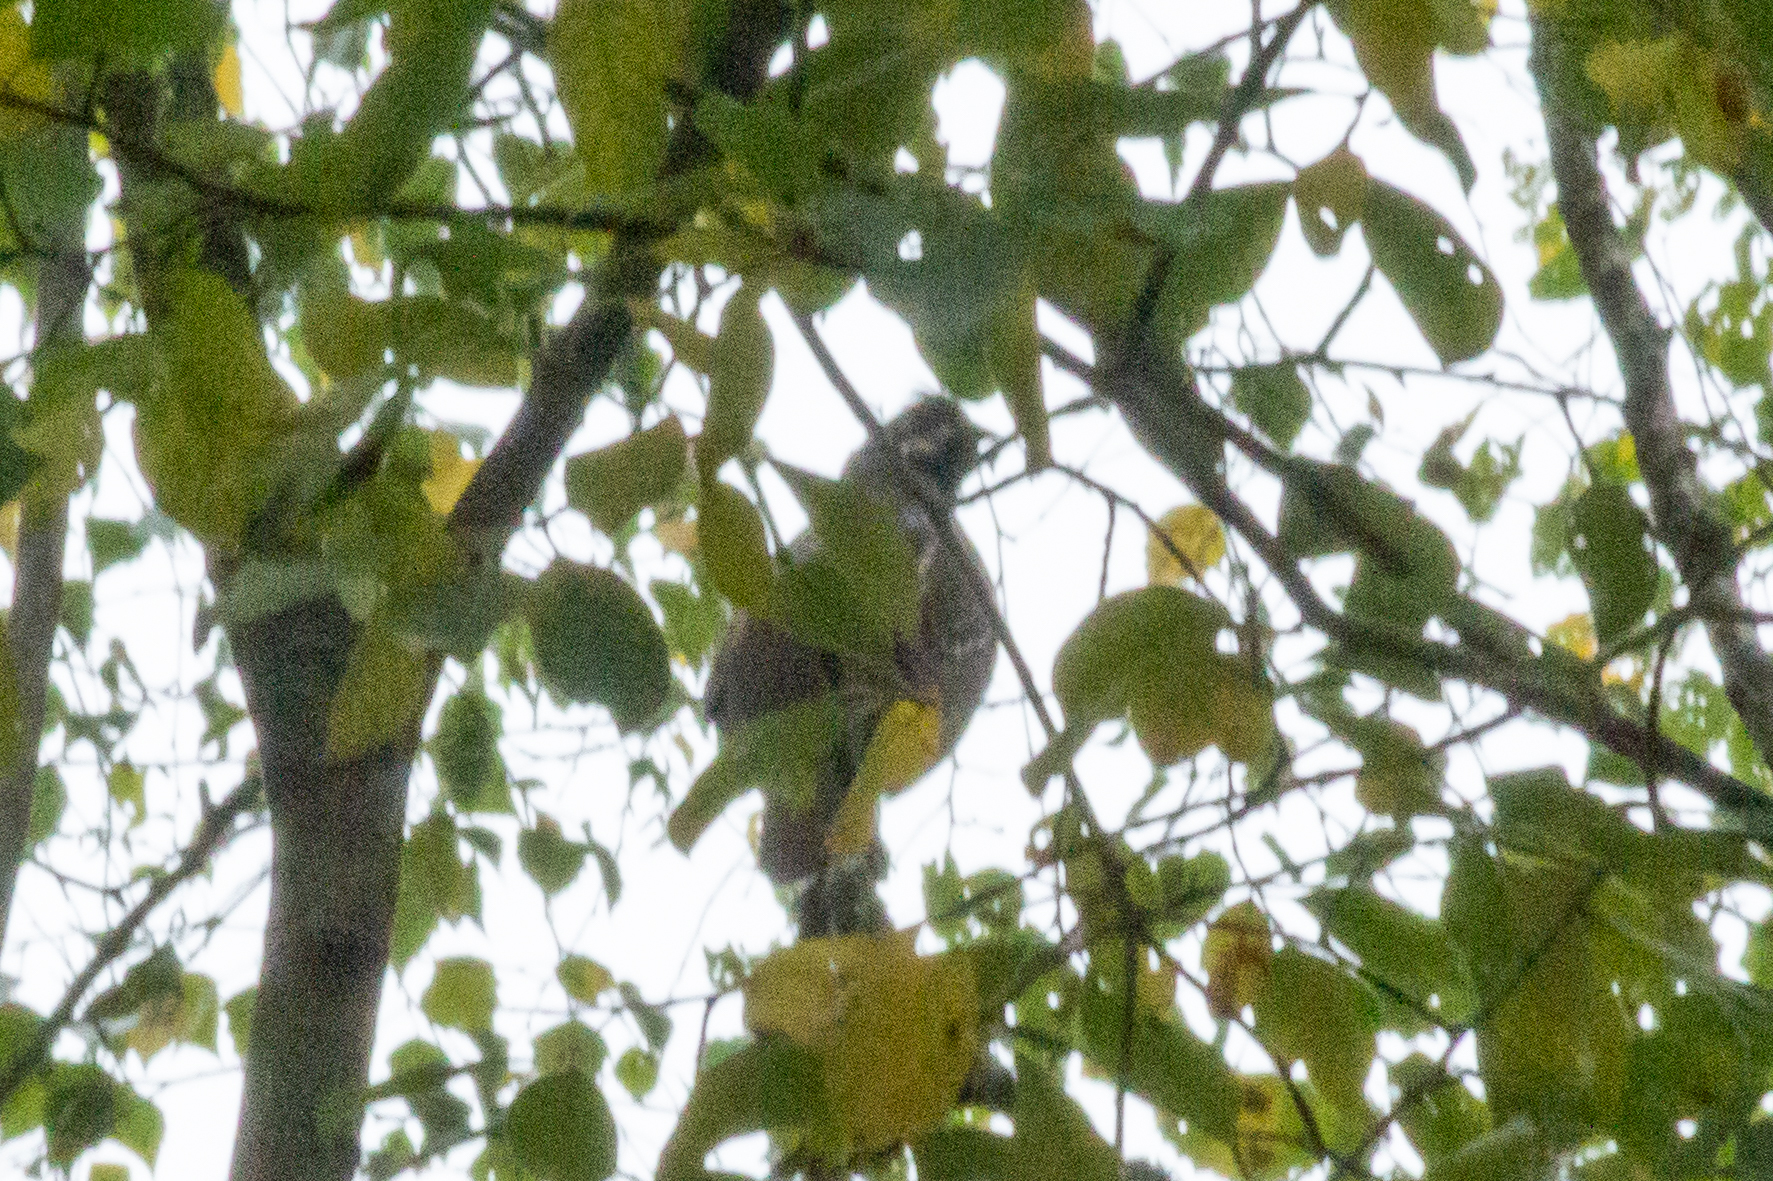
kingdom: Animalia
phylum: Chordata
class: Aves
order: Galliformes
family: Phasianidae
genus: Tetrastes
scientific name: Tetrastes bonasia
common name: Hazel grouse
